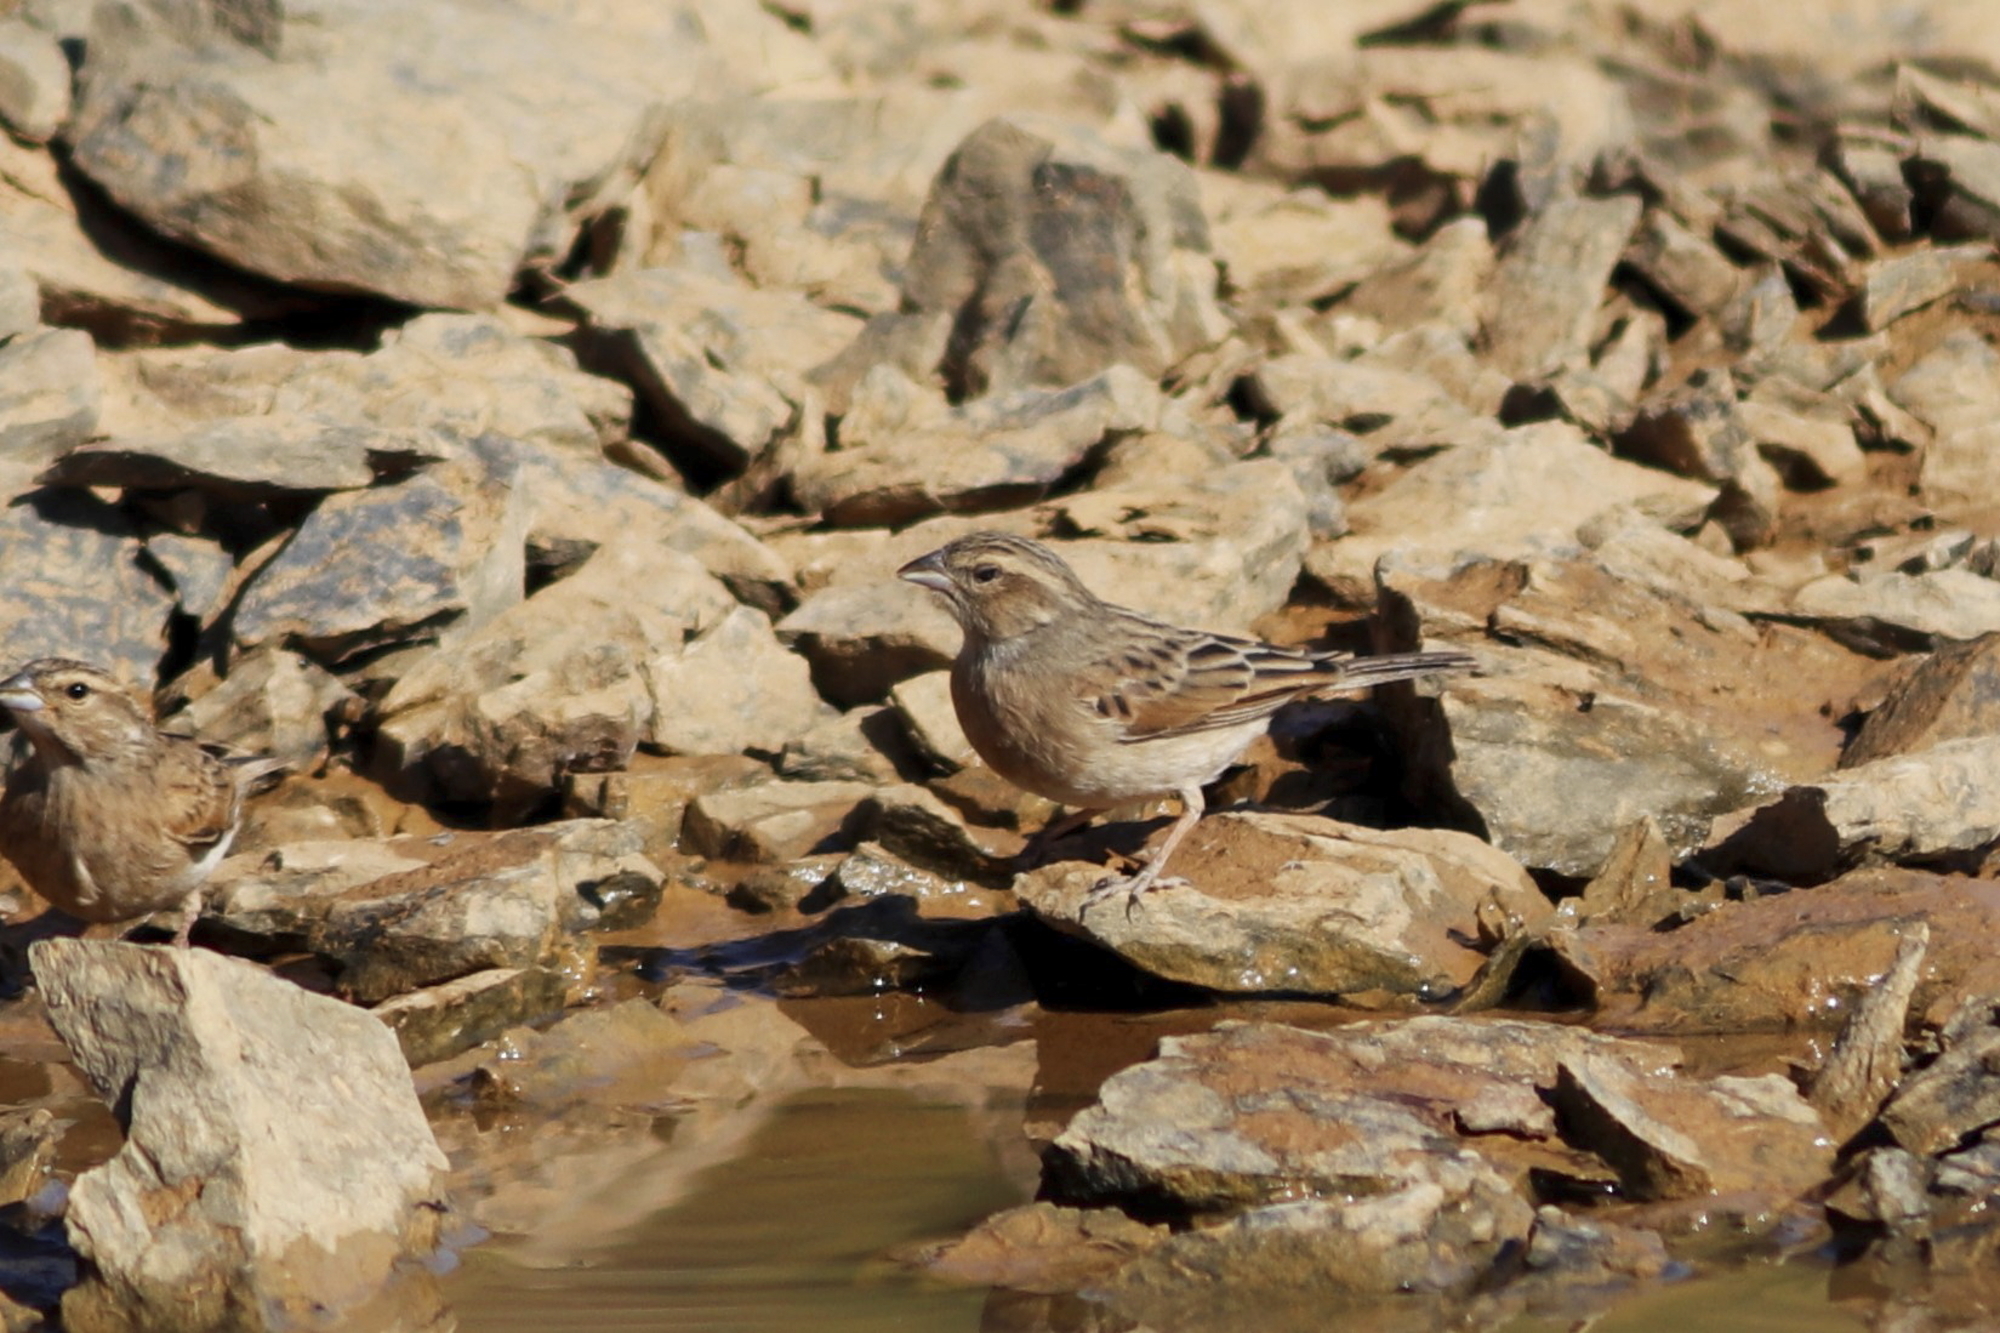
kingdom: Animalia
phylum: Chordata
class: Aves
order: Passeriformes
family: Emberizidae
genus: Emberiza
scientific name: Emberiza impetuani
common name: Lark-like bunting
